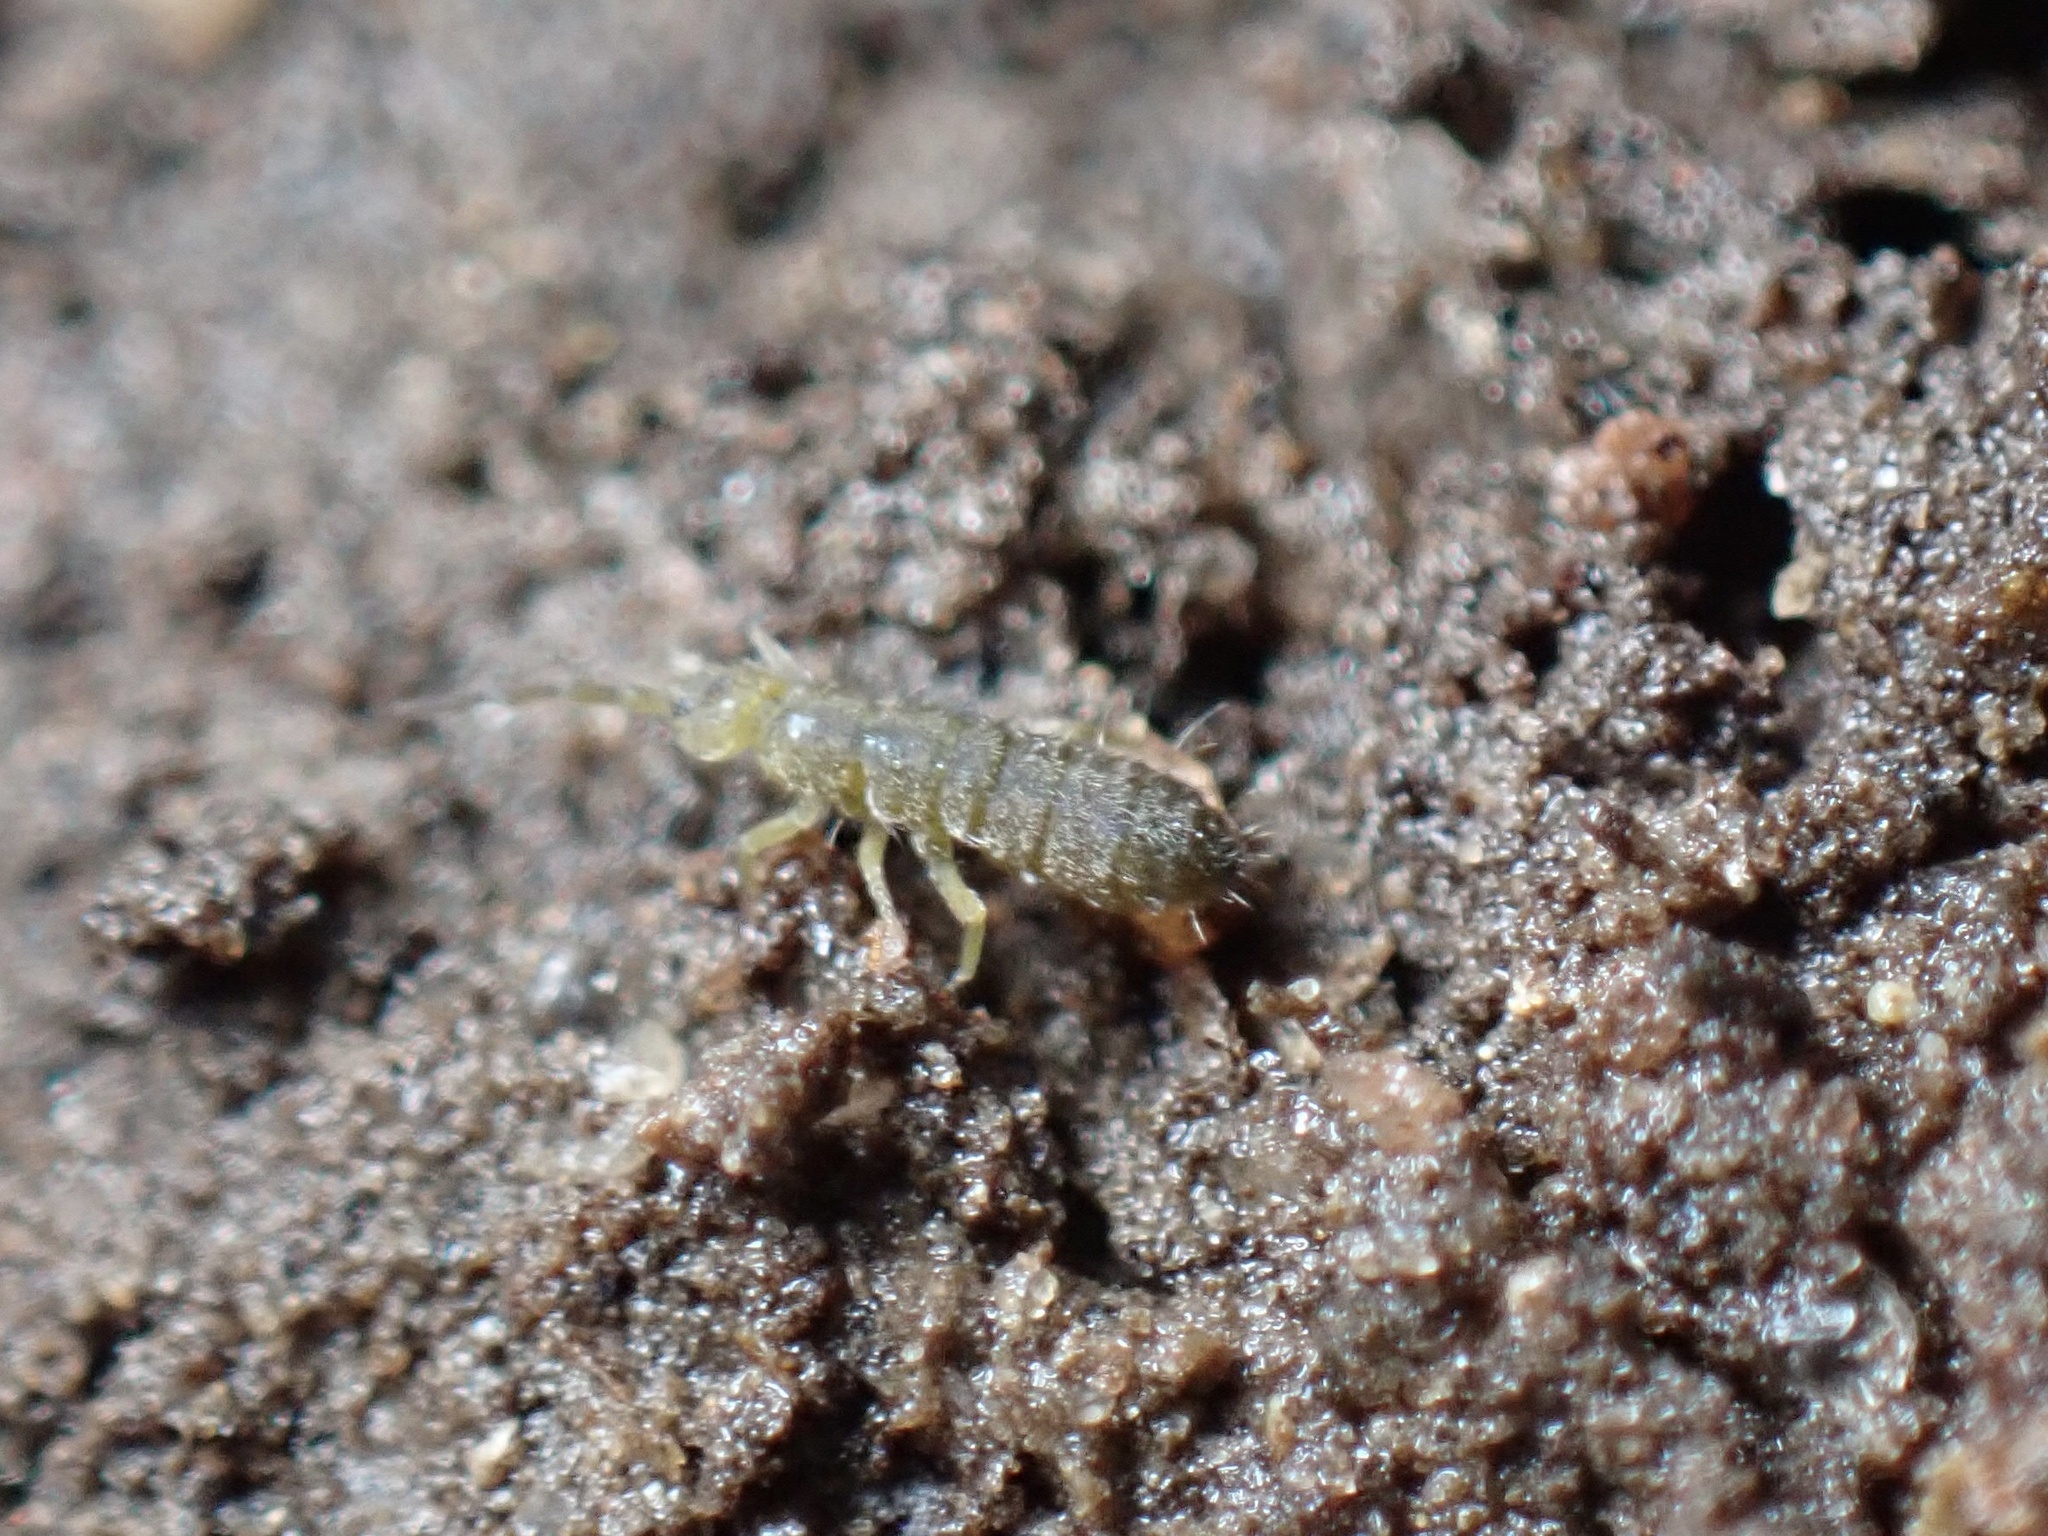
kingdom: Animalia
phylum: Arthropoda
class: Collembola
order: Entomobryomorpha
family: Isotomidae
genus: Isotoma
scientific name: Isotoma viridis
